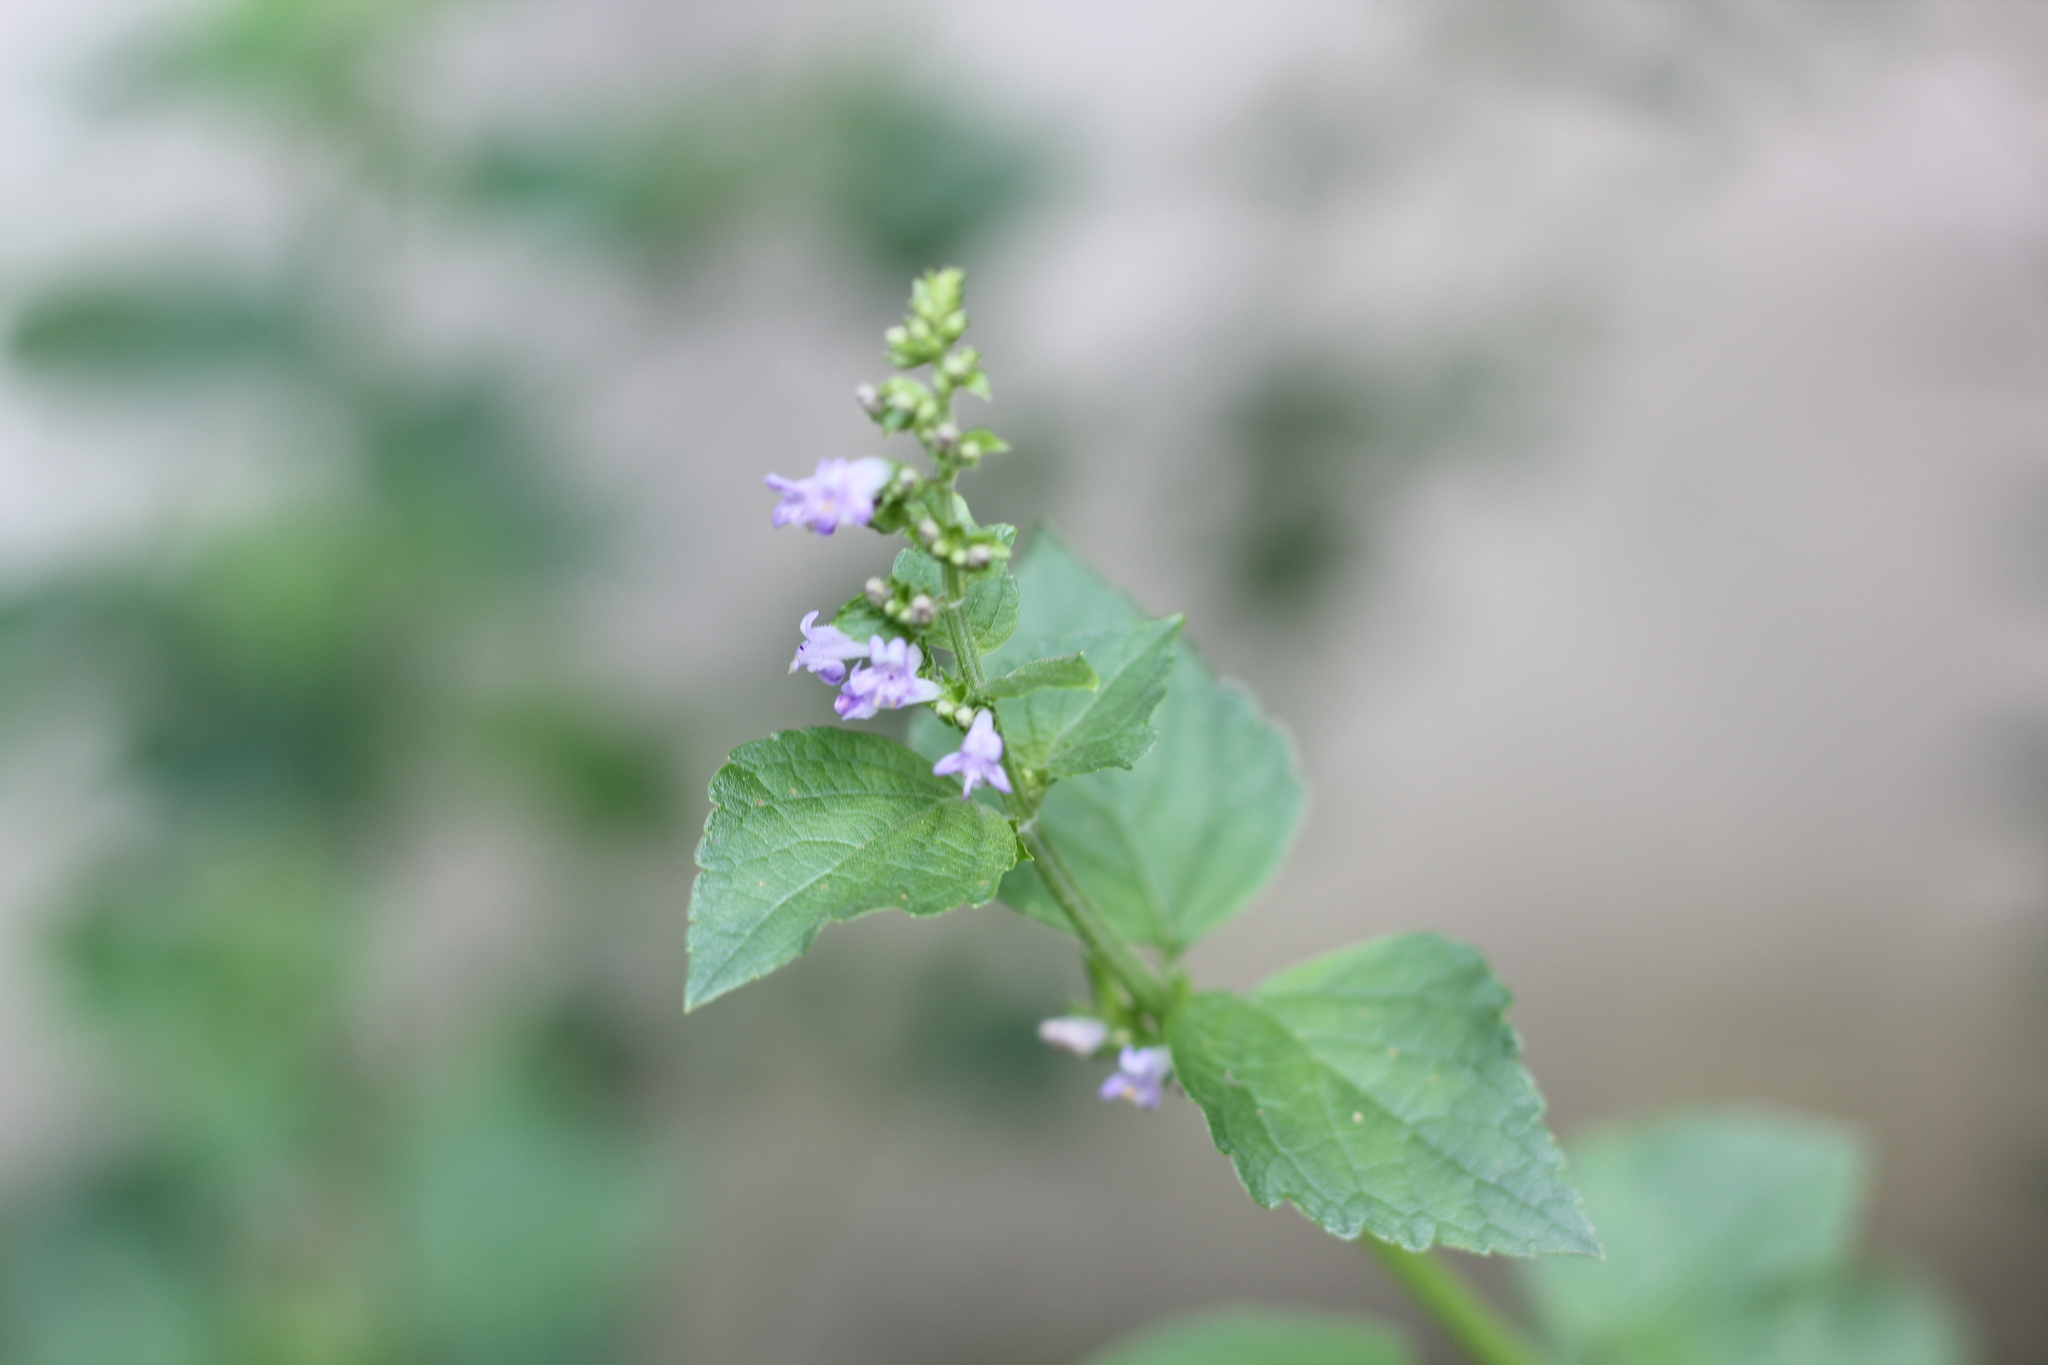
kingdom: Plantae
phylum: Tracheophyta
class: Magnoliopsida
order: Lamiales
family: Lamiaceae
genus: Cantinoa
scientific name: Cantinoa mutabilis
